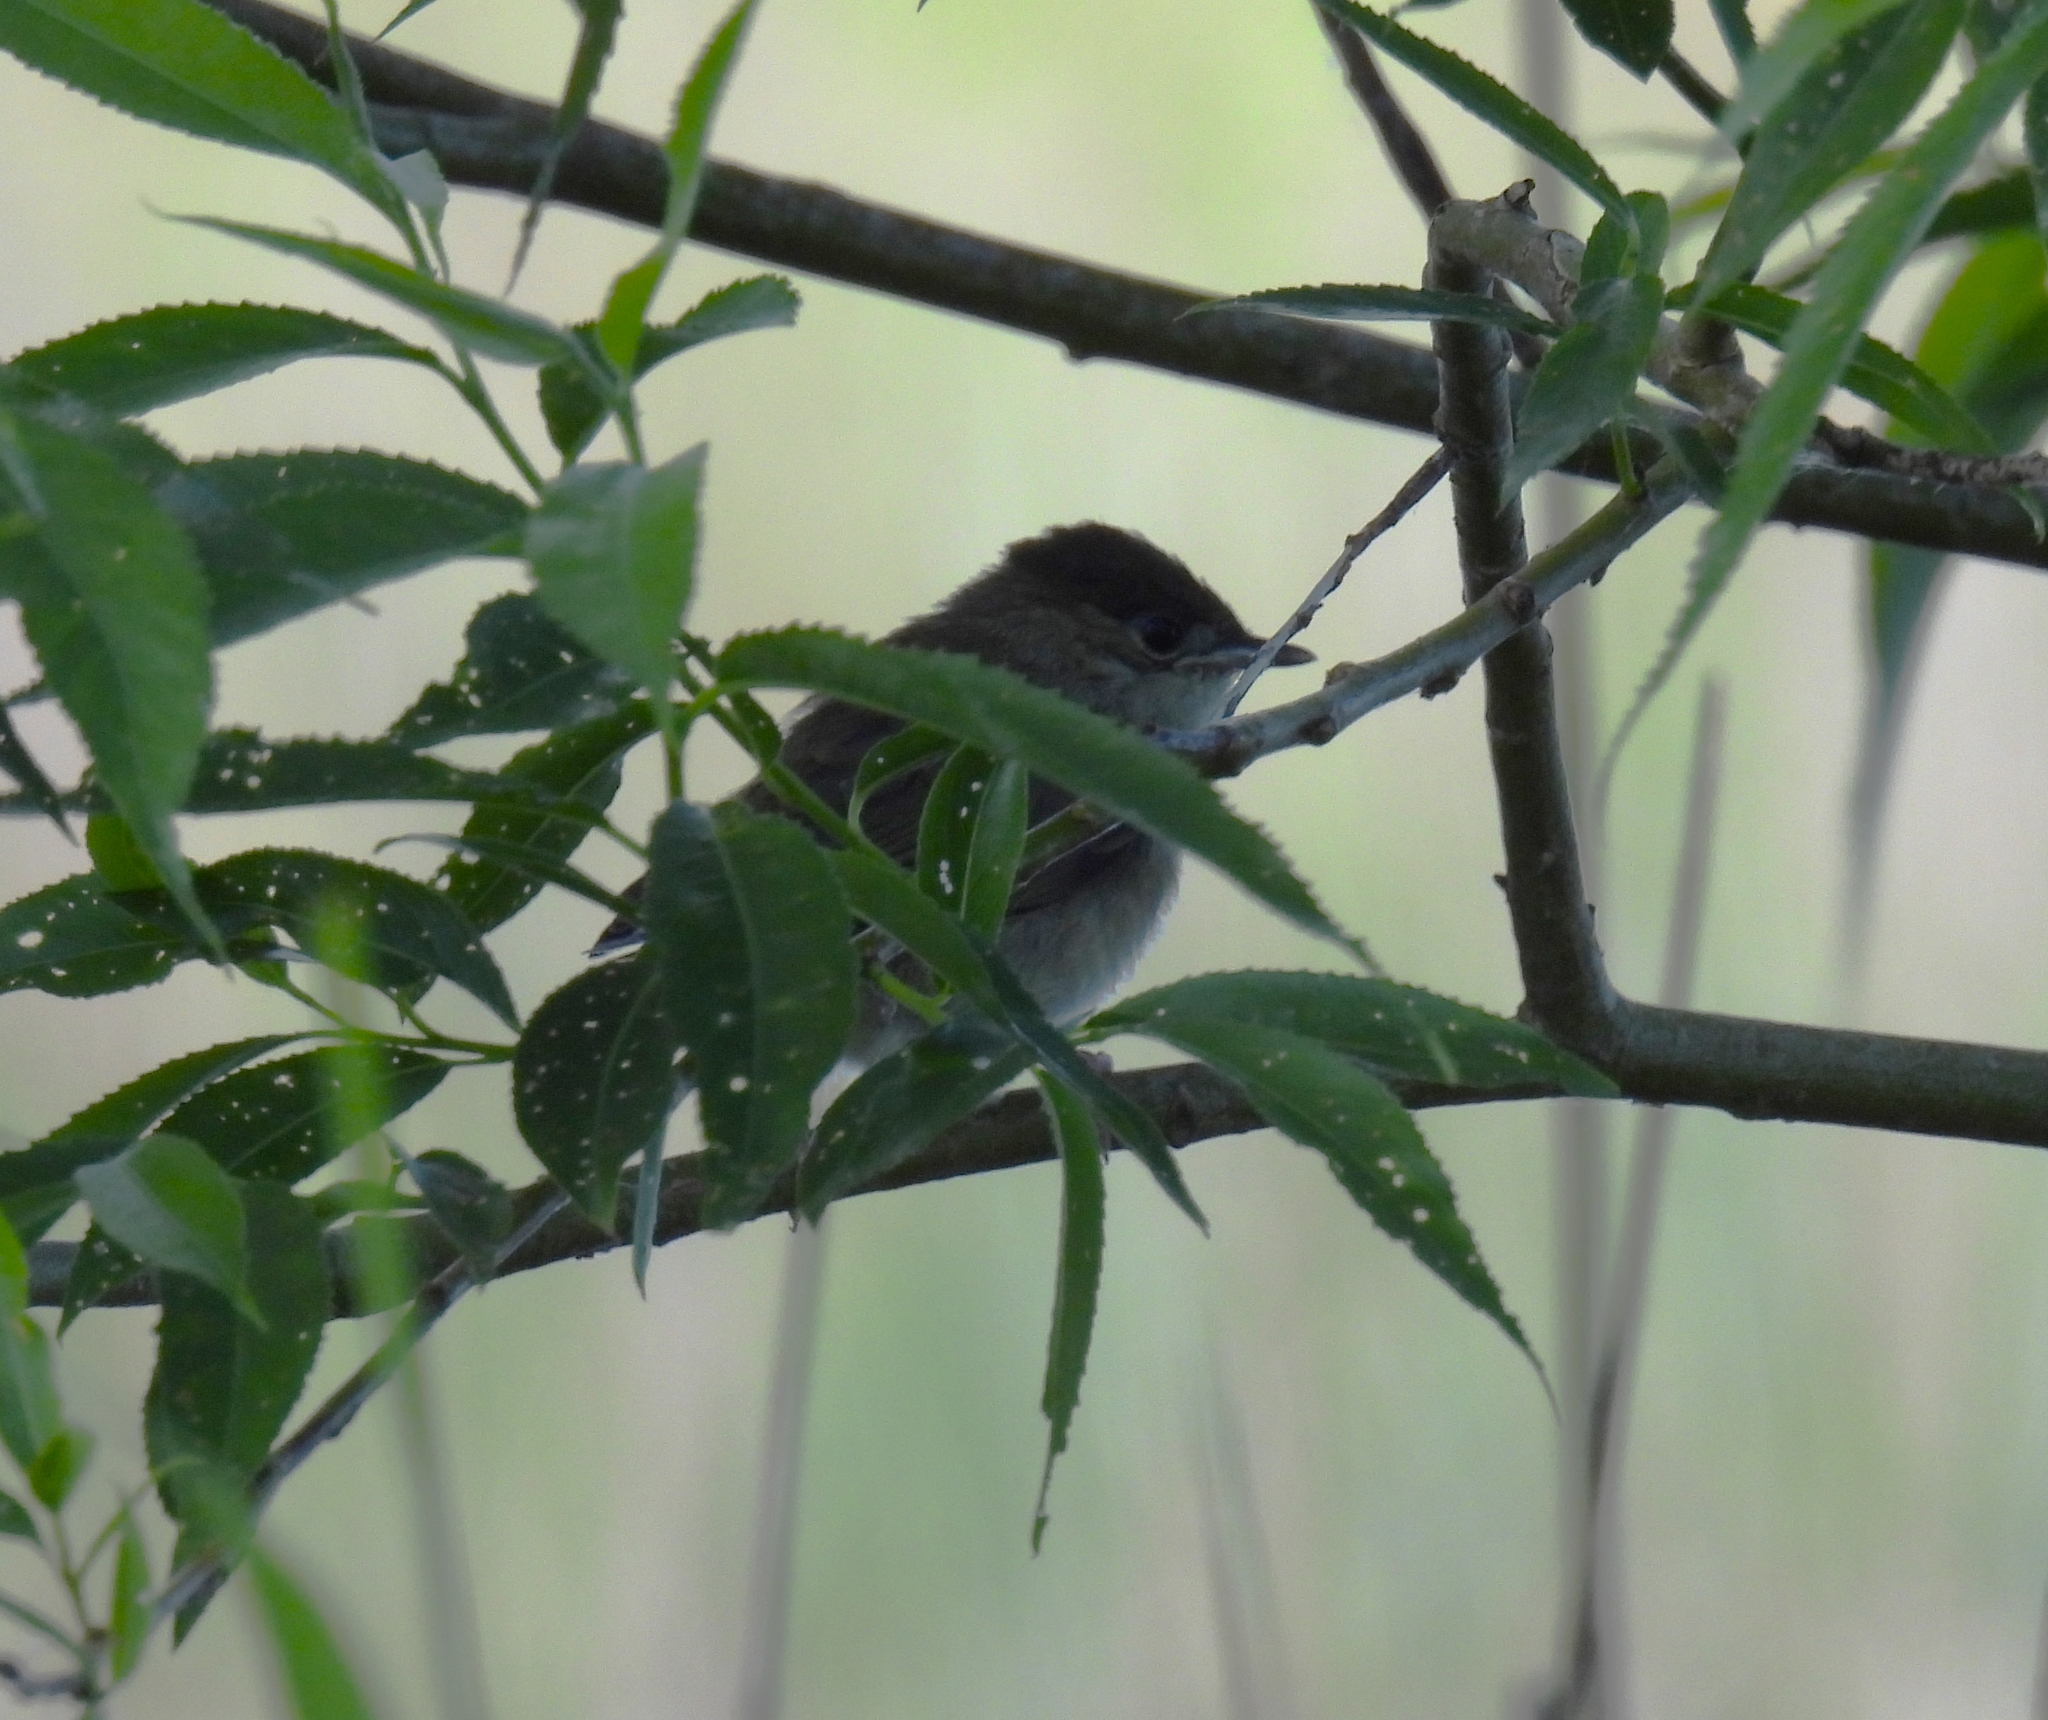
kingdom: Animalia
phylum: Chordata
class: Aves
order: Passeriformes
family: Sylviidae
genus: Sylvia
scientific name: Sylvia atricapilla
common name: Eurasian blackcap
